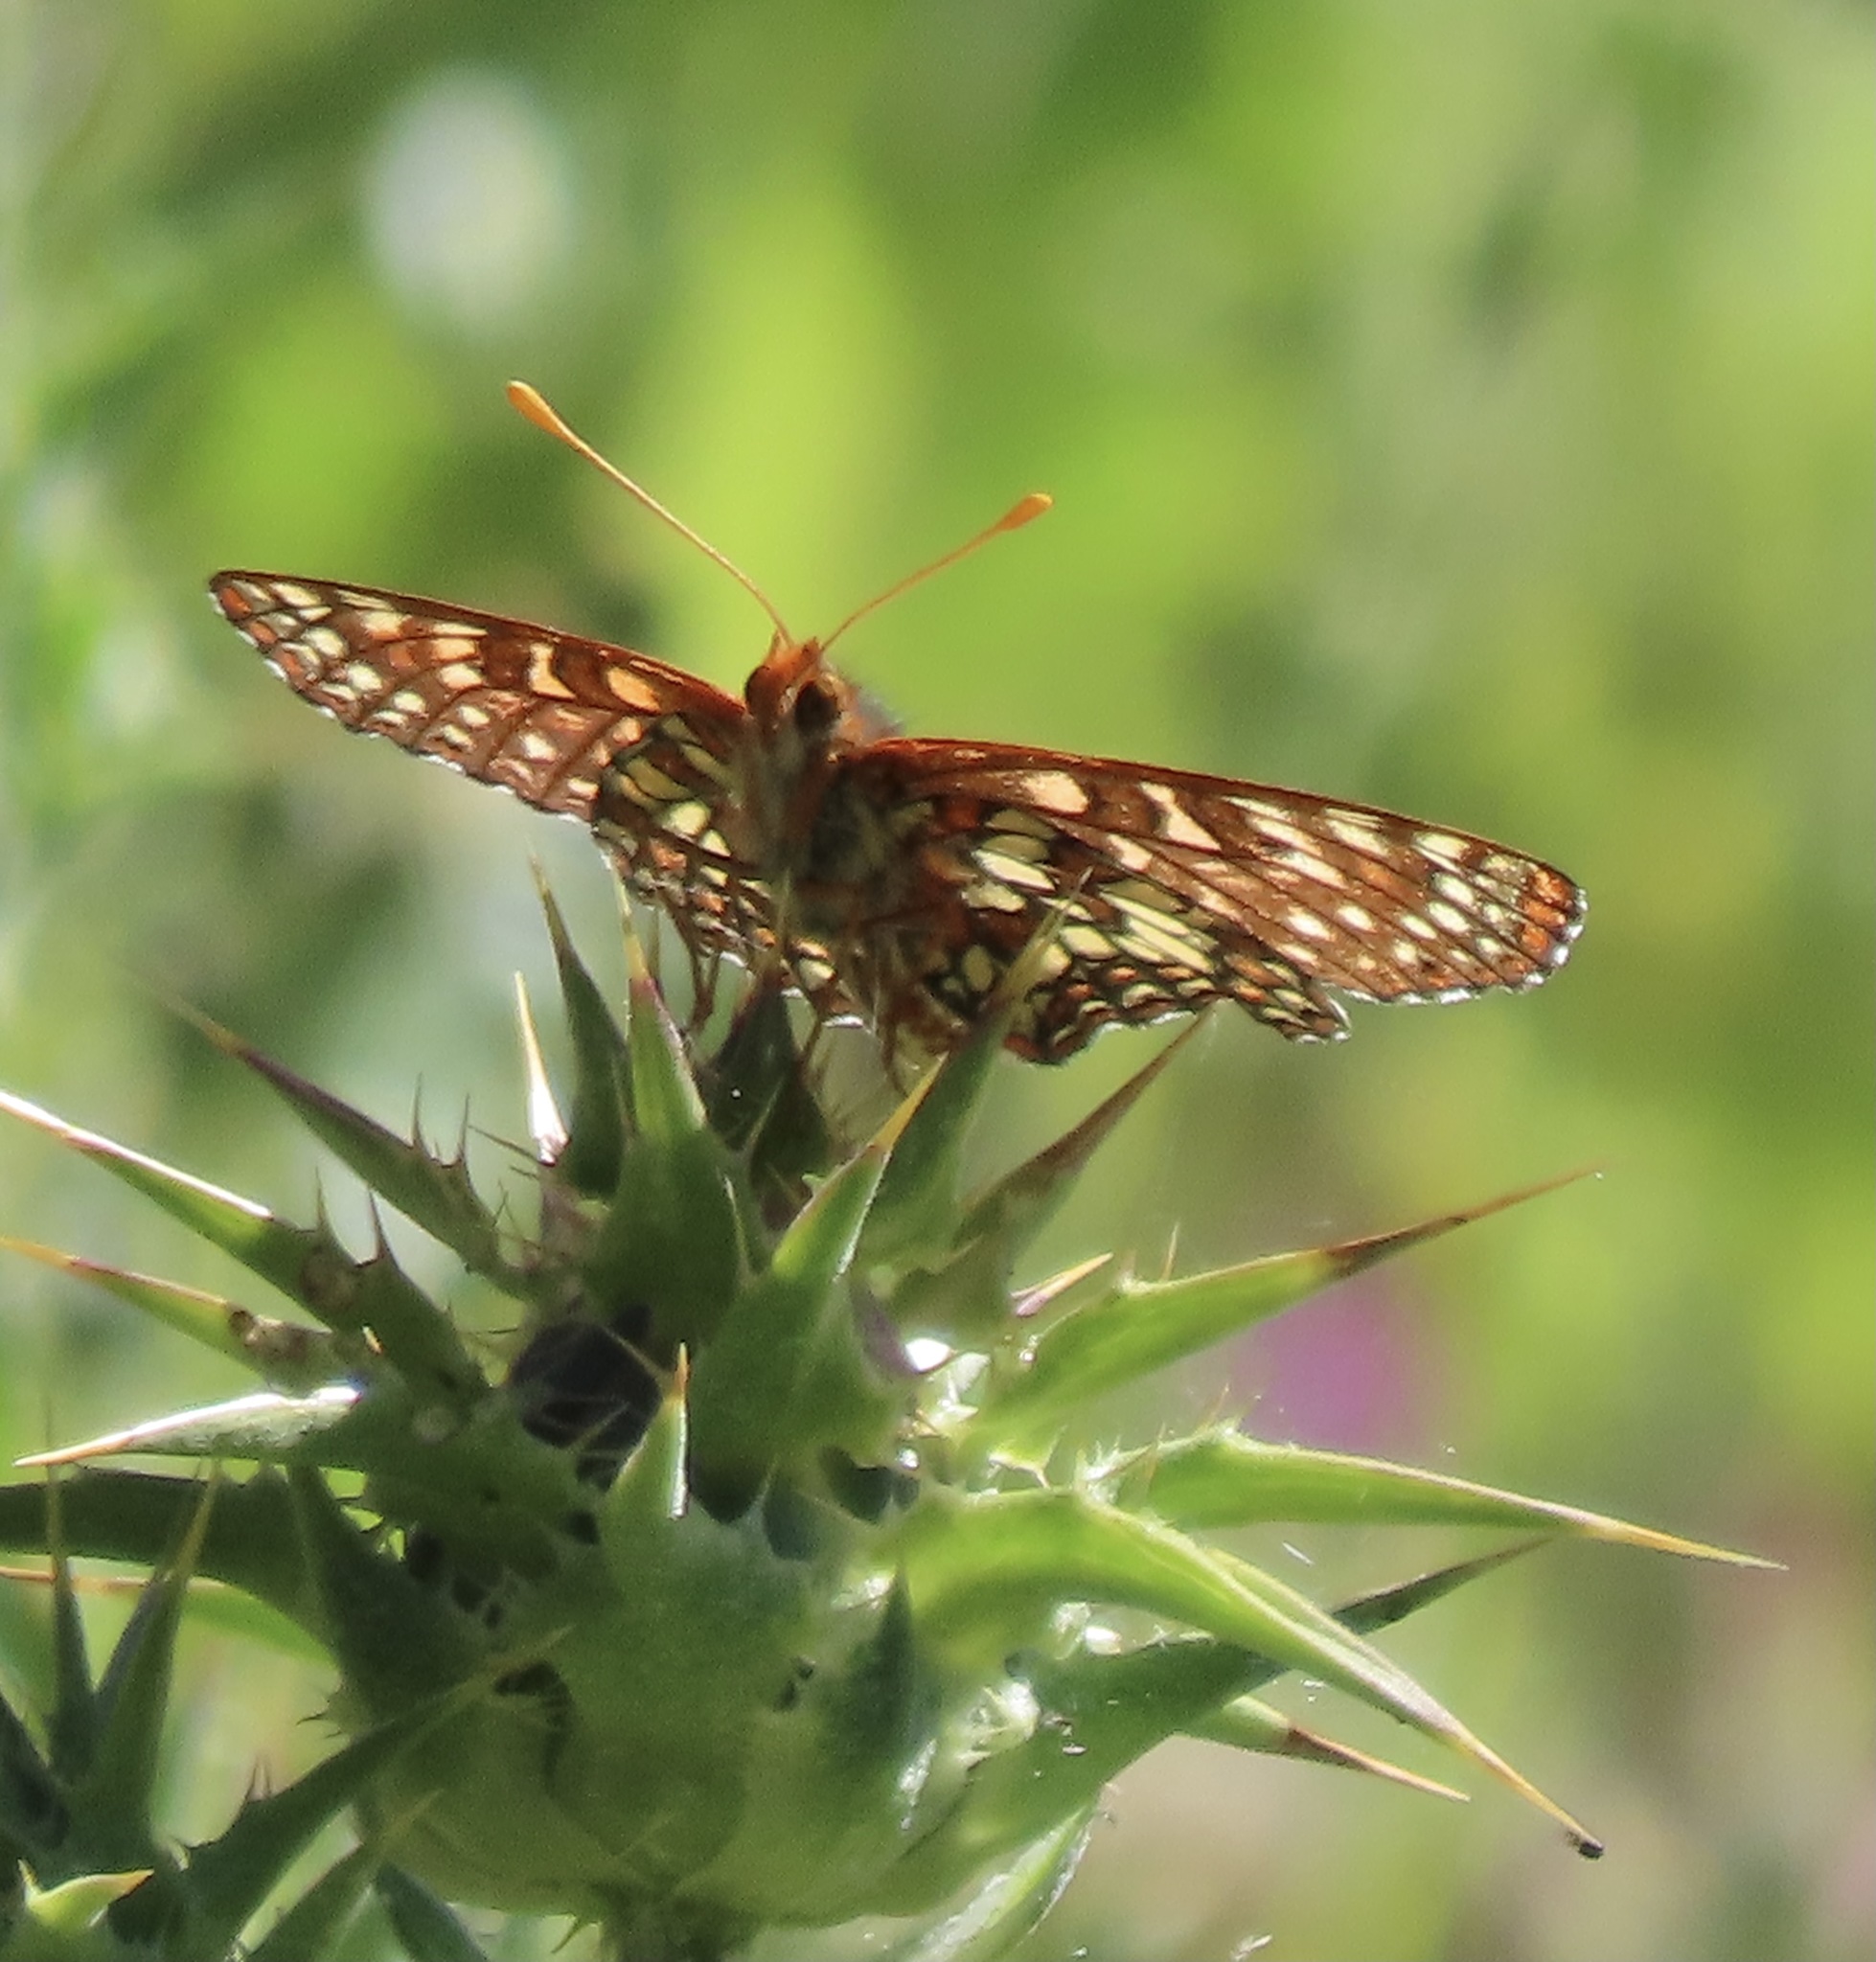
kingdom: Animalia
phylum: Arthropoda
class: Insecta
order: Lepidoptera
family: Nymphalidae
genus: Occidryas
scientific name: Occidryas chalcedona
